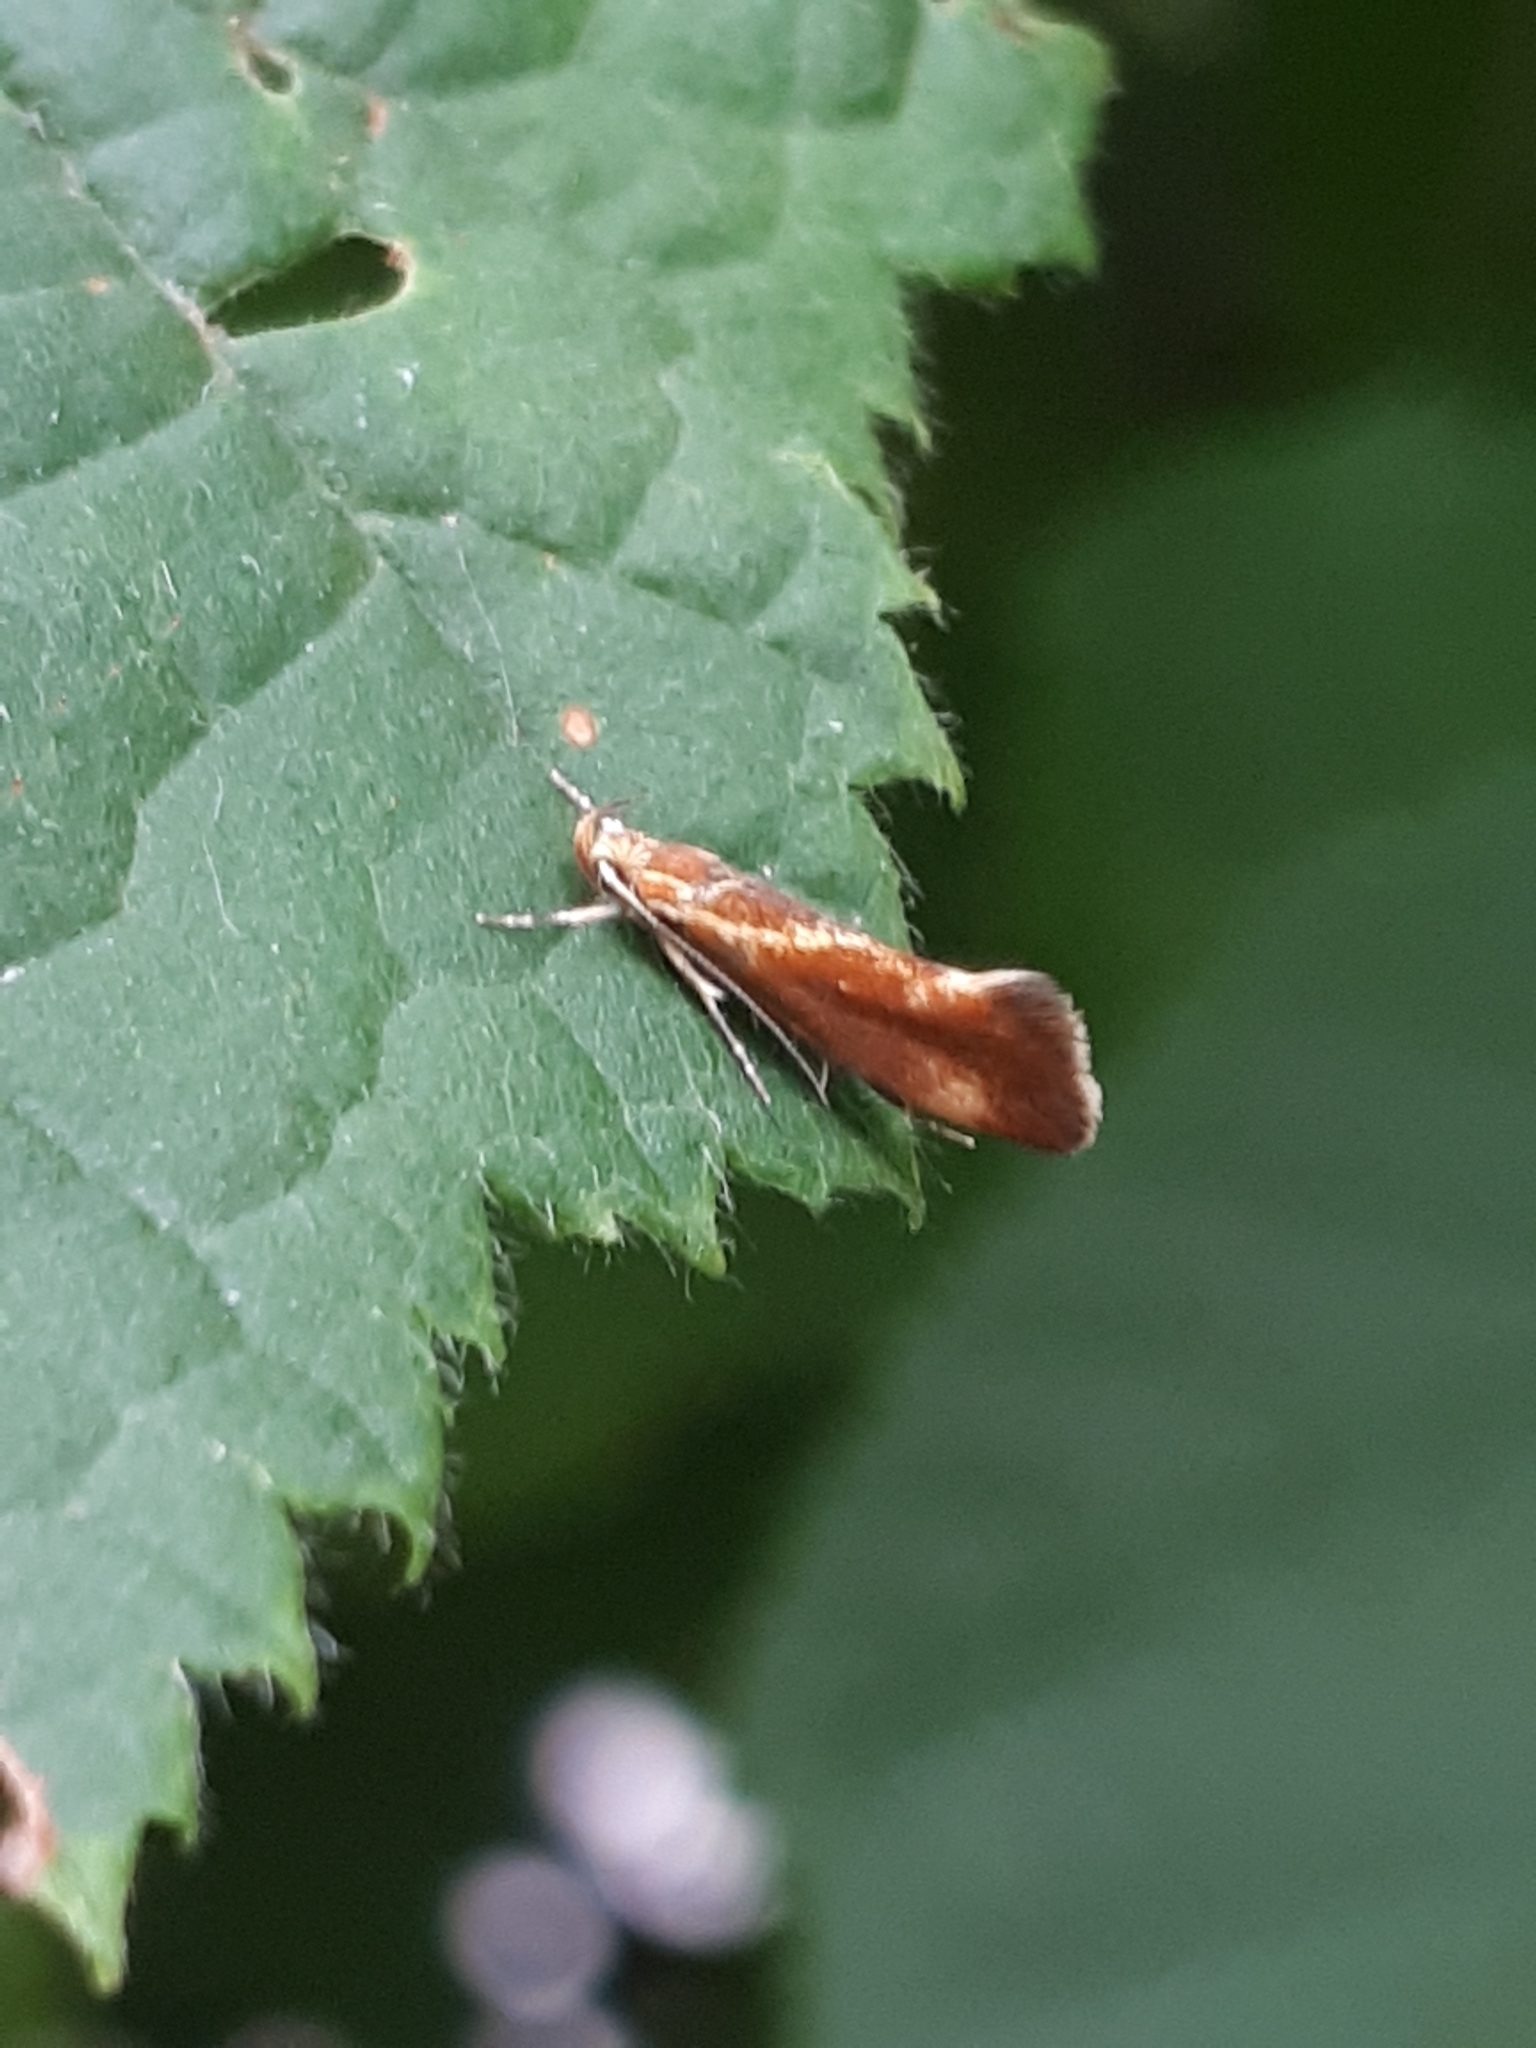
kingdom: Animalia
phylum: Arthropoda
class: Insecta
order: Lepidoptera
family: Oecophoridae
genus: Borkhausenia
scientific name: Borkhausenia italica
